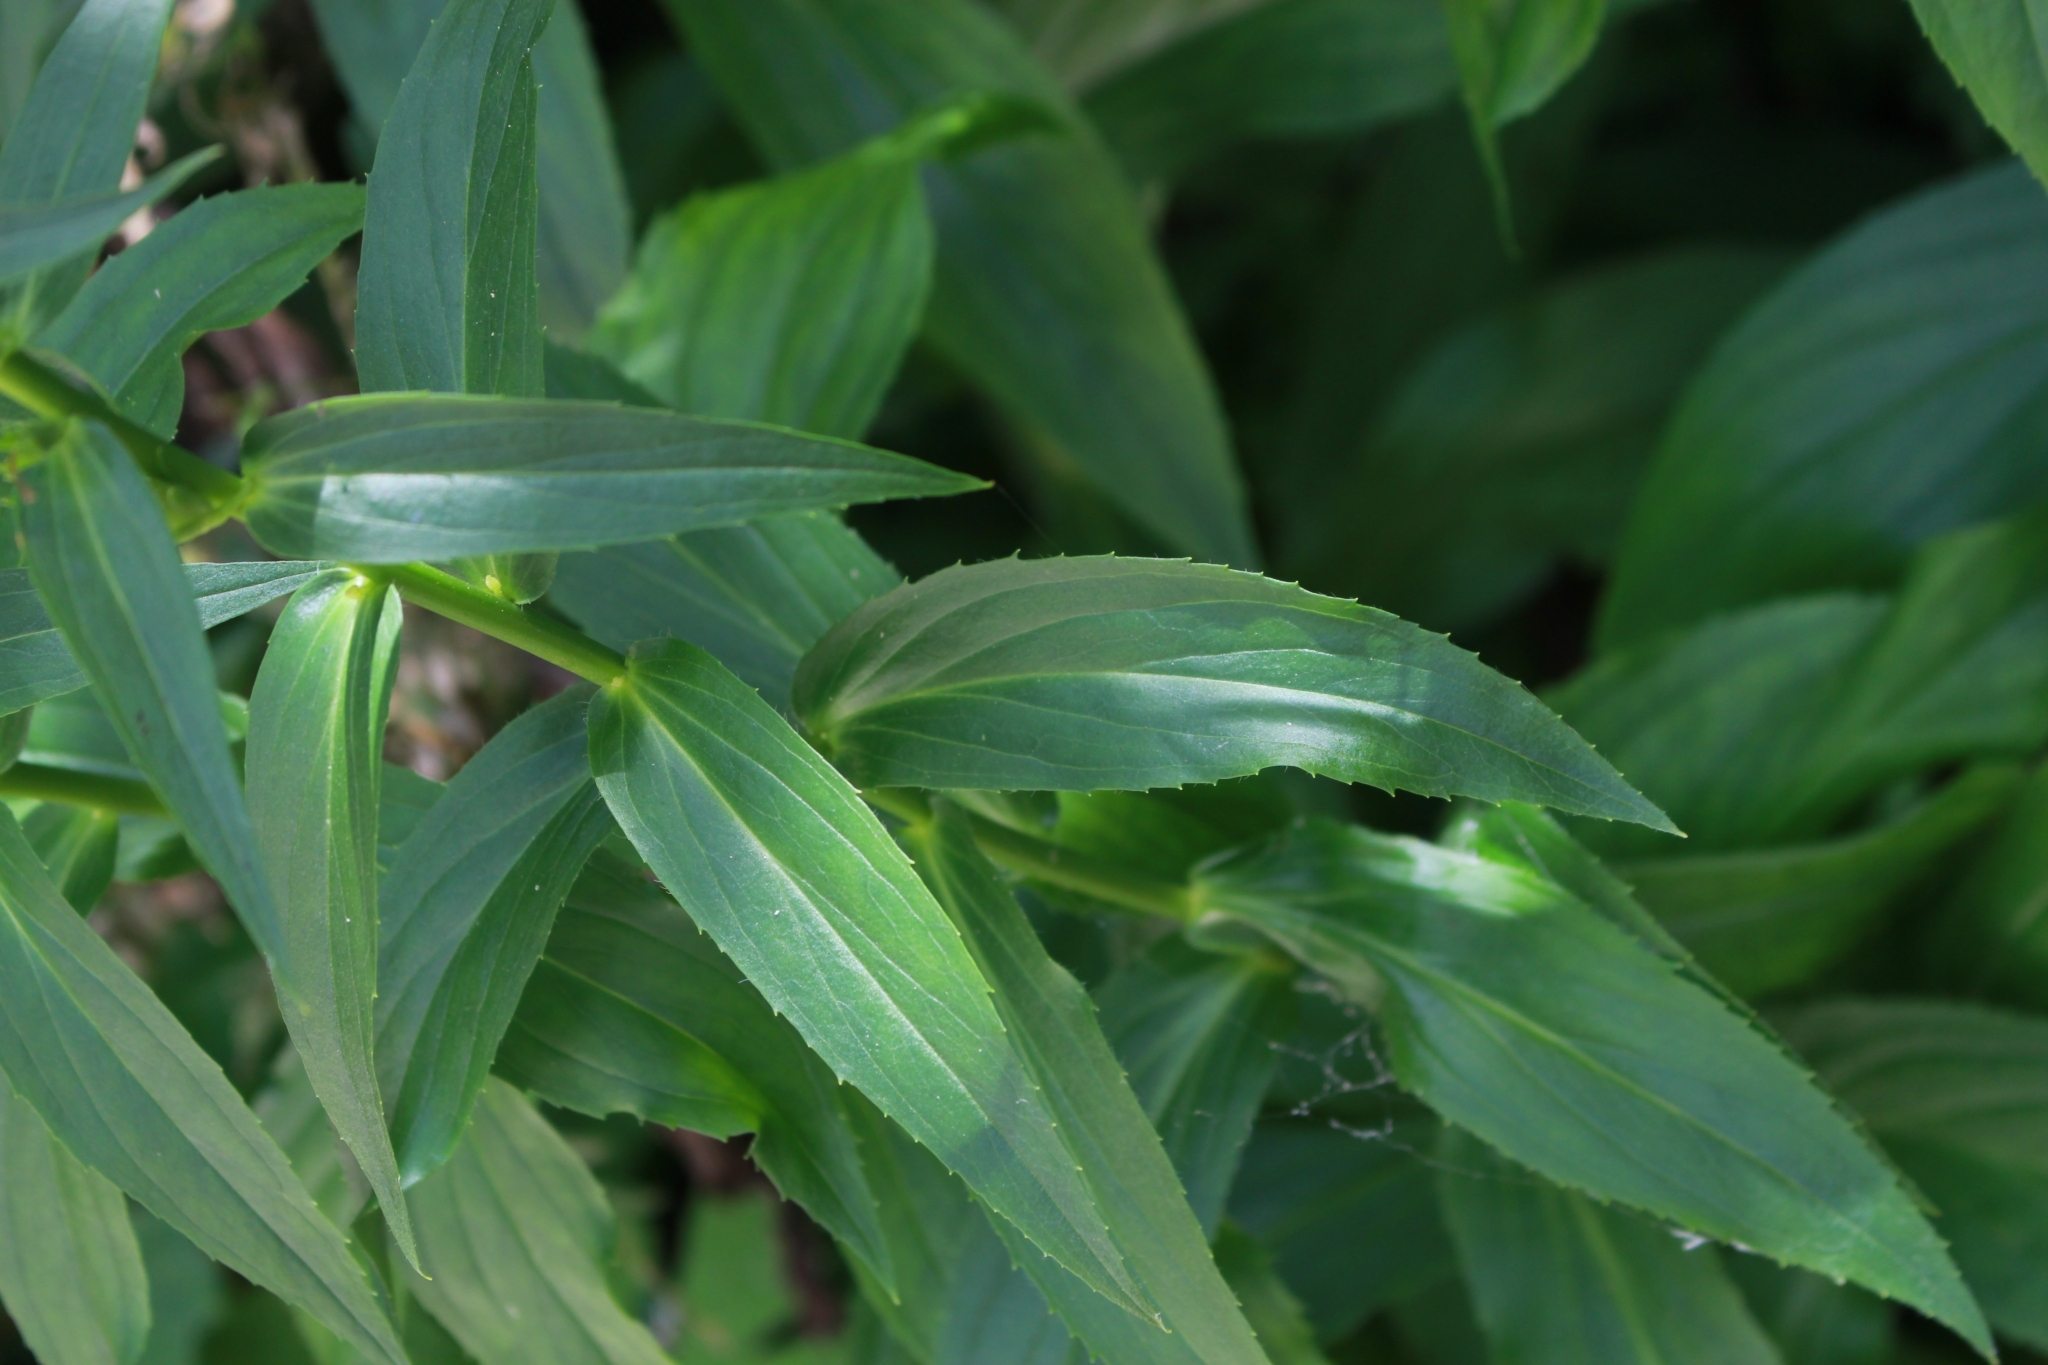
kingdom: Plantae
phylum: Tracheophyta
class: Magnoliopsida
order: Lamiales
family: Plantaginaceae
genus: Digitalis
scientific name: Digitalis lutea
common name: Straw foxglove
